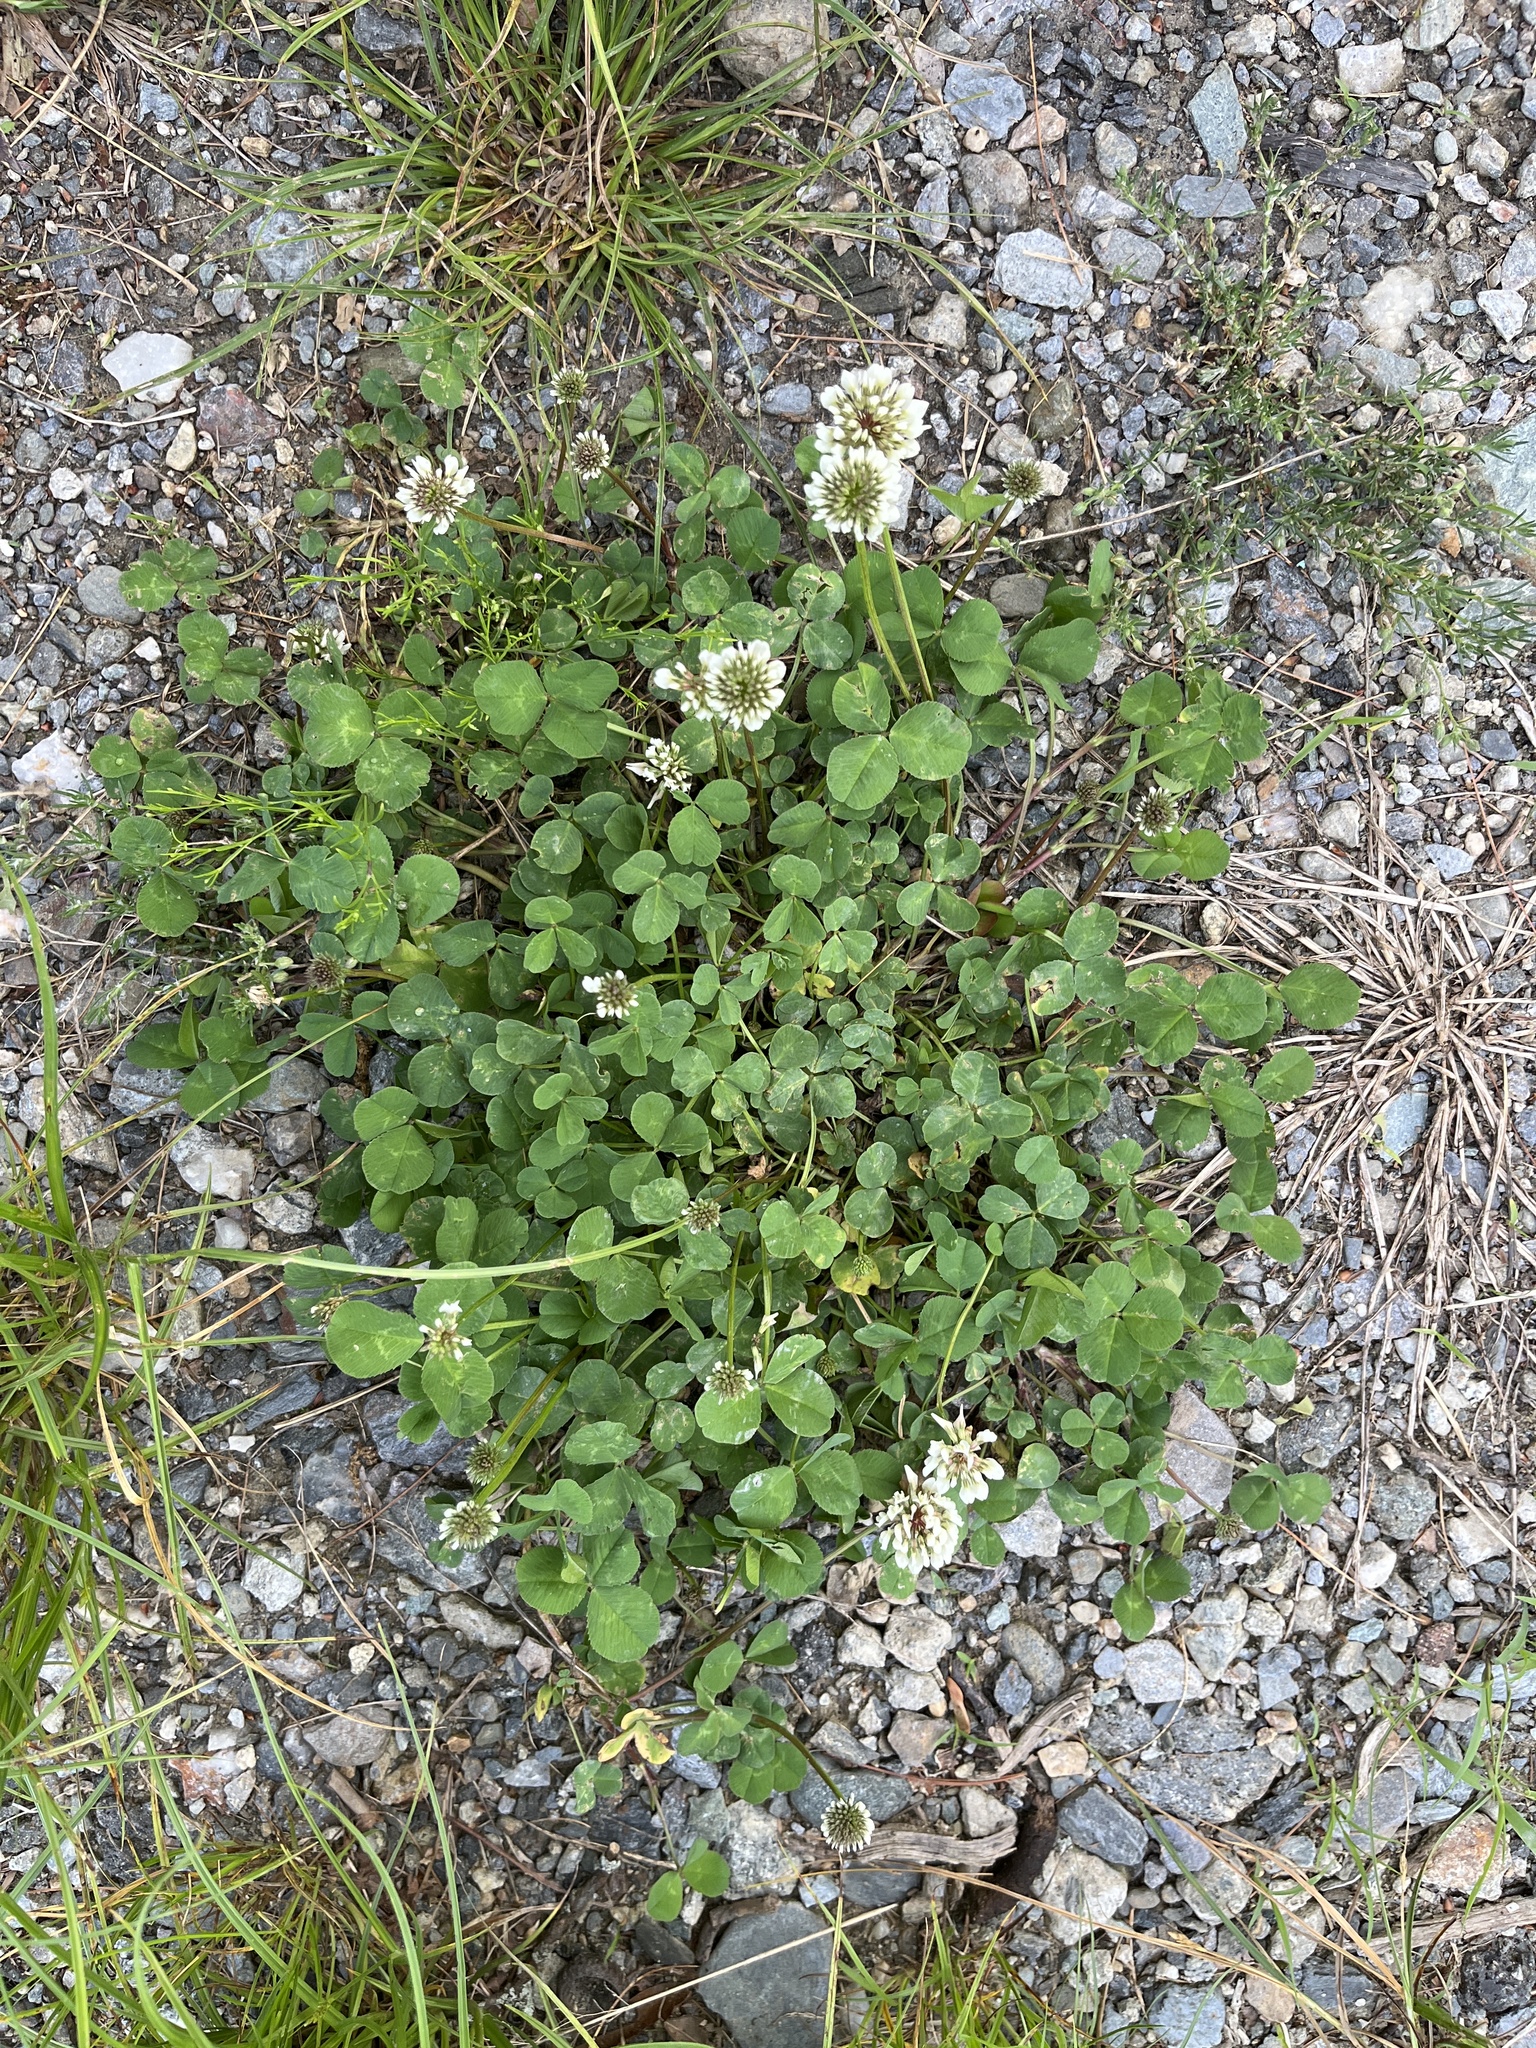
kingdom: Plantae
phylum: Tracheophyta
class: Magnoliopsida
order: Fabales
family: Fabaceae
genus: Trifolium
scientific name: Trifolium repens
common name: White clover
